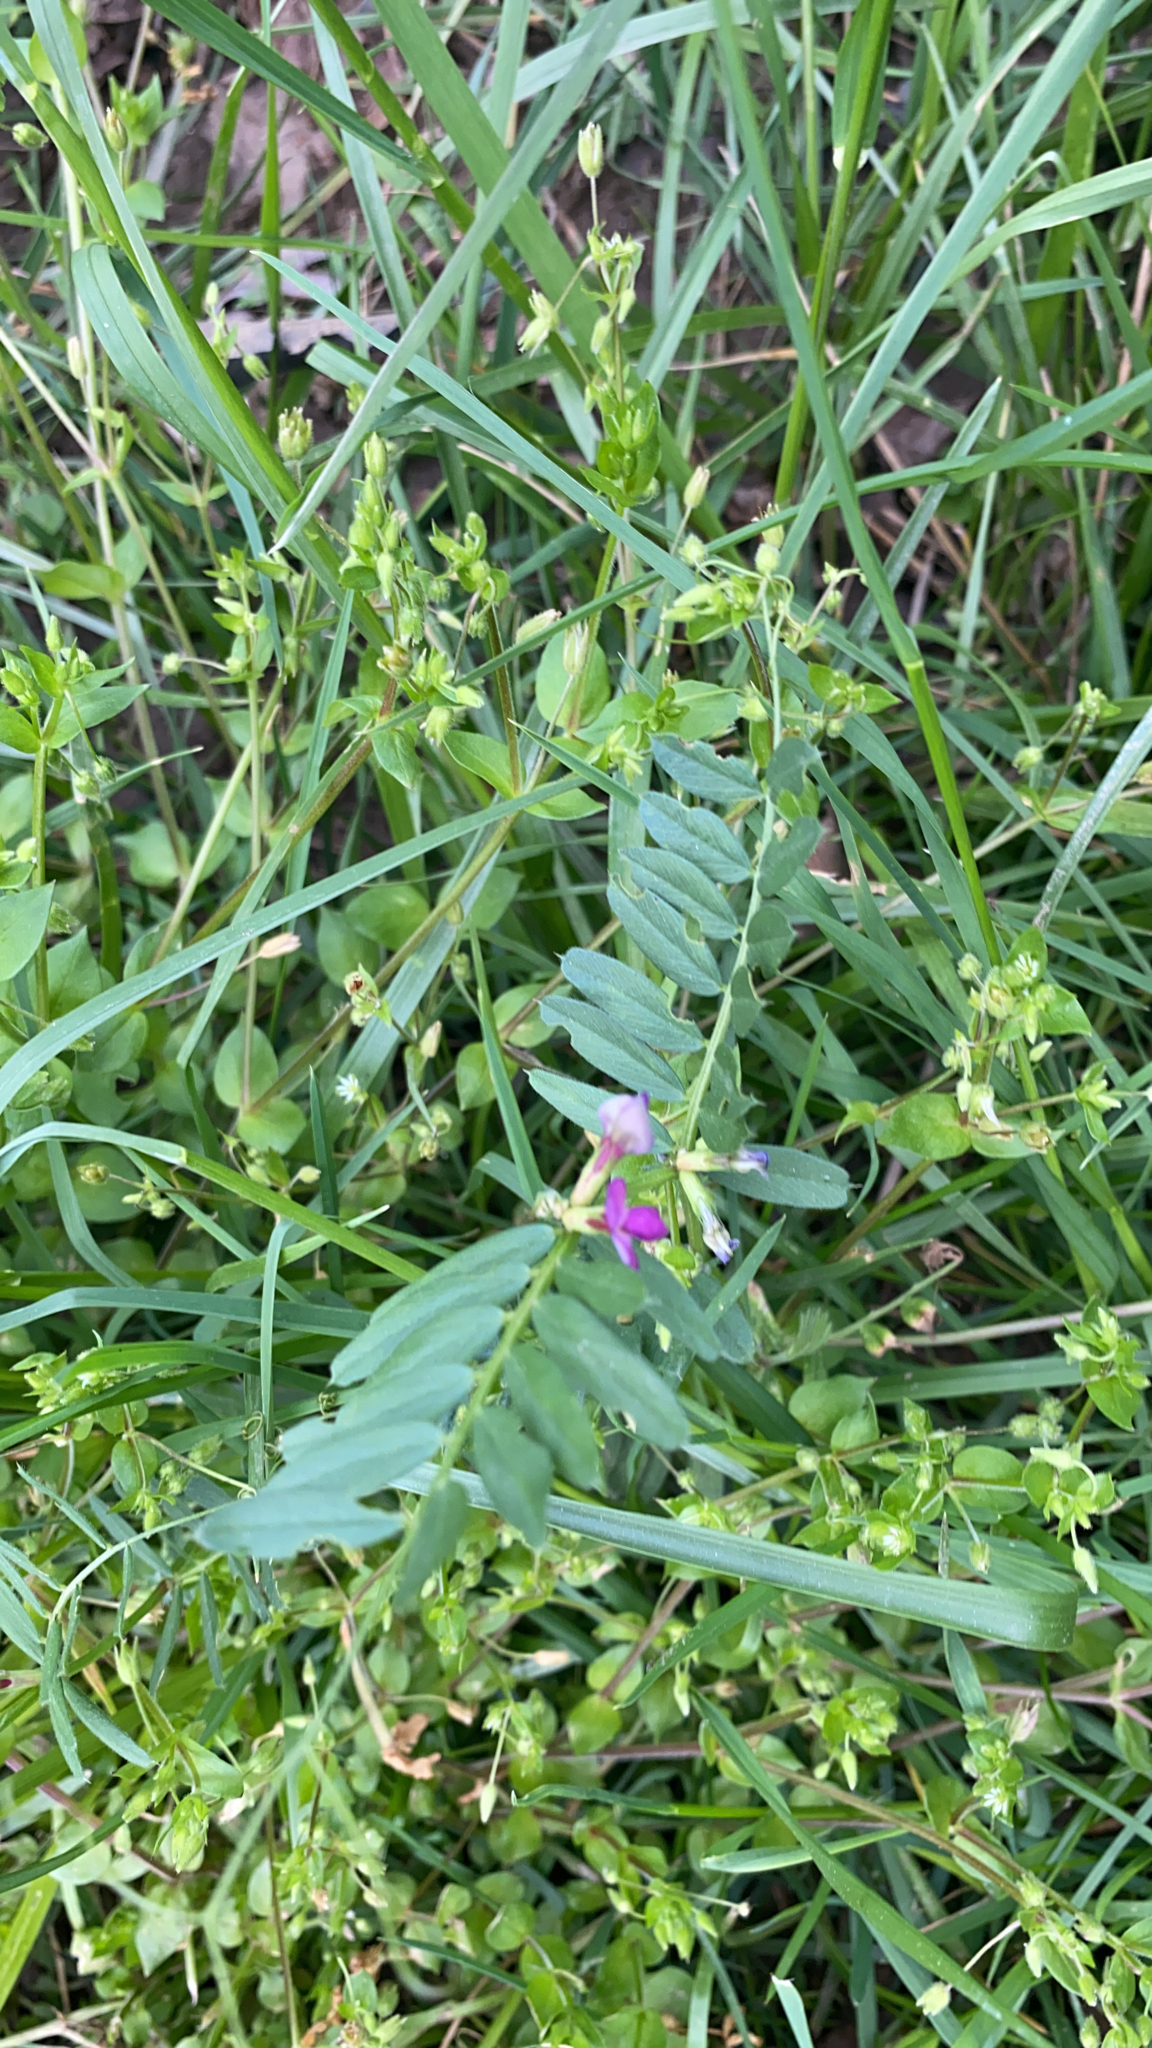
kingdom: Plantae
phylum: Tracheophyta
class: Magnoliopsida
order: Fabales
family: Fabaceae
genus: Vicia
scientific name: Vicia sativa
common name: Garden vetch
